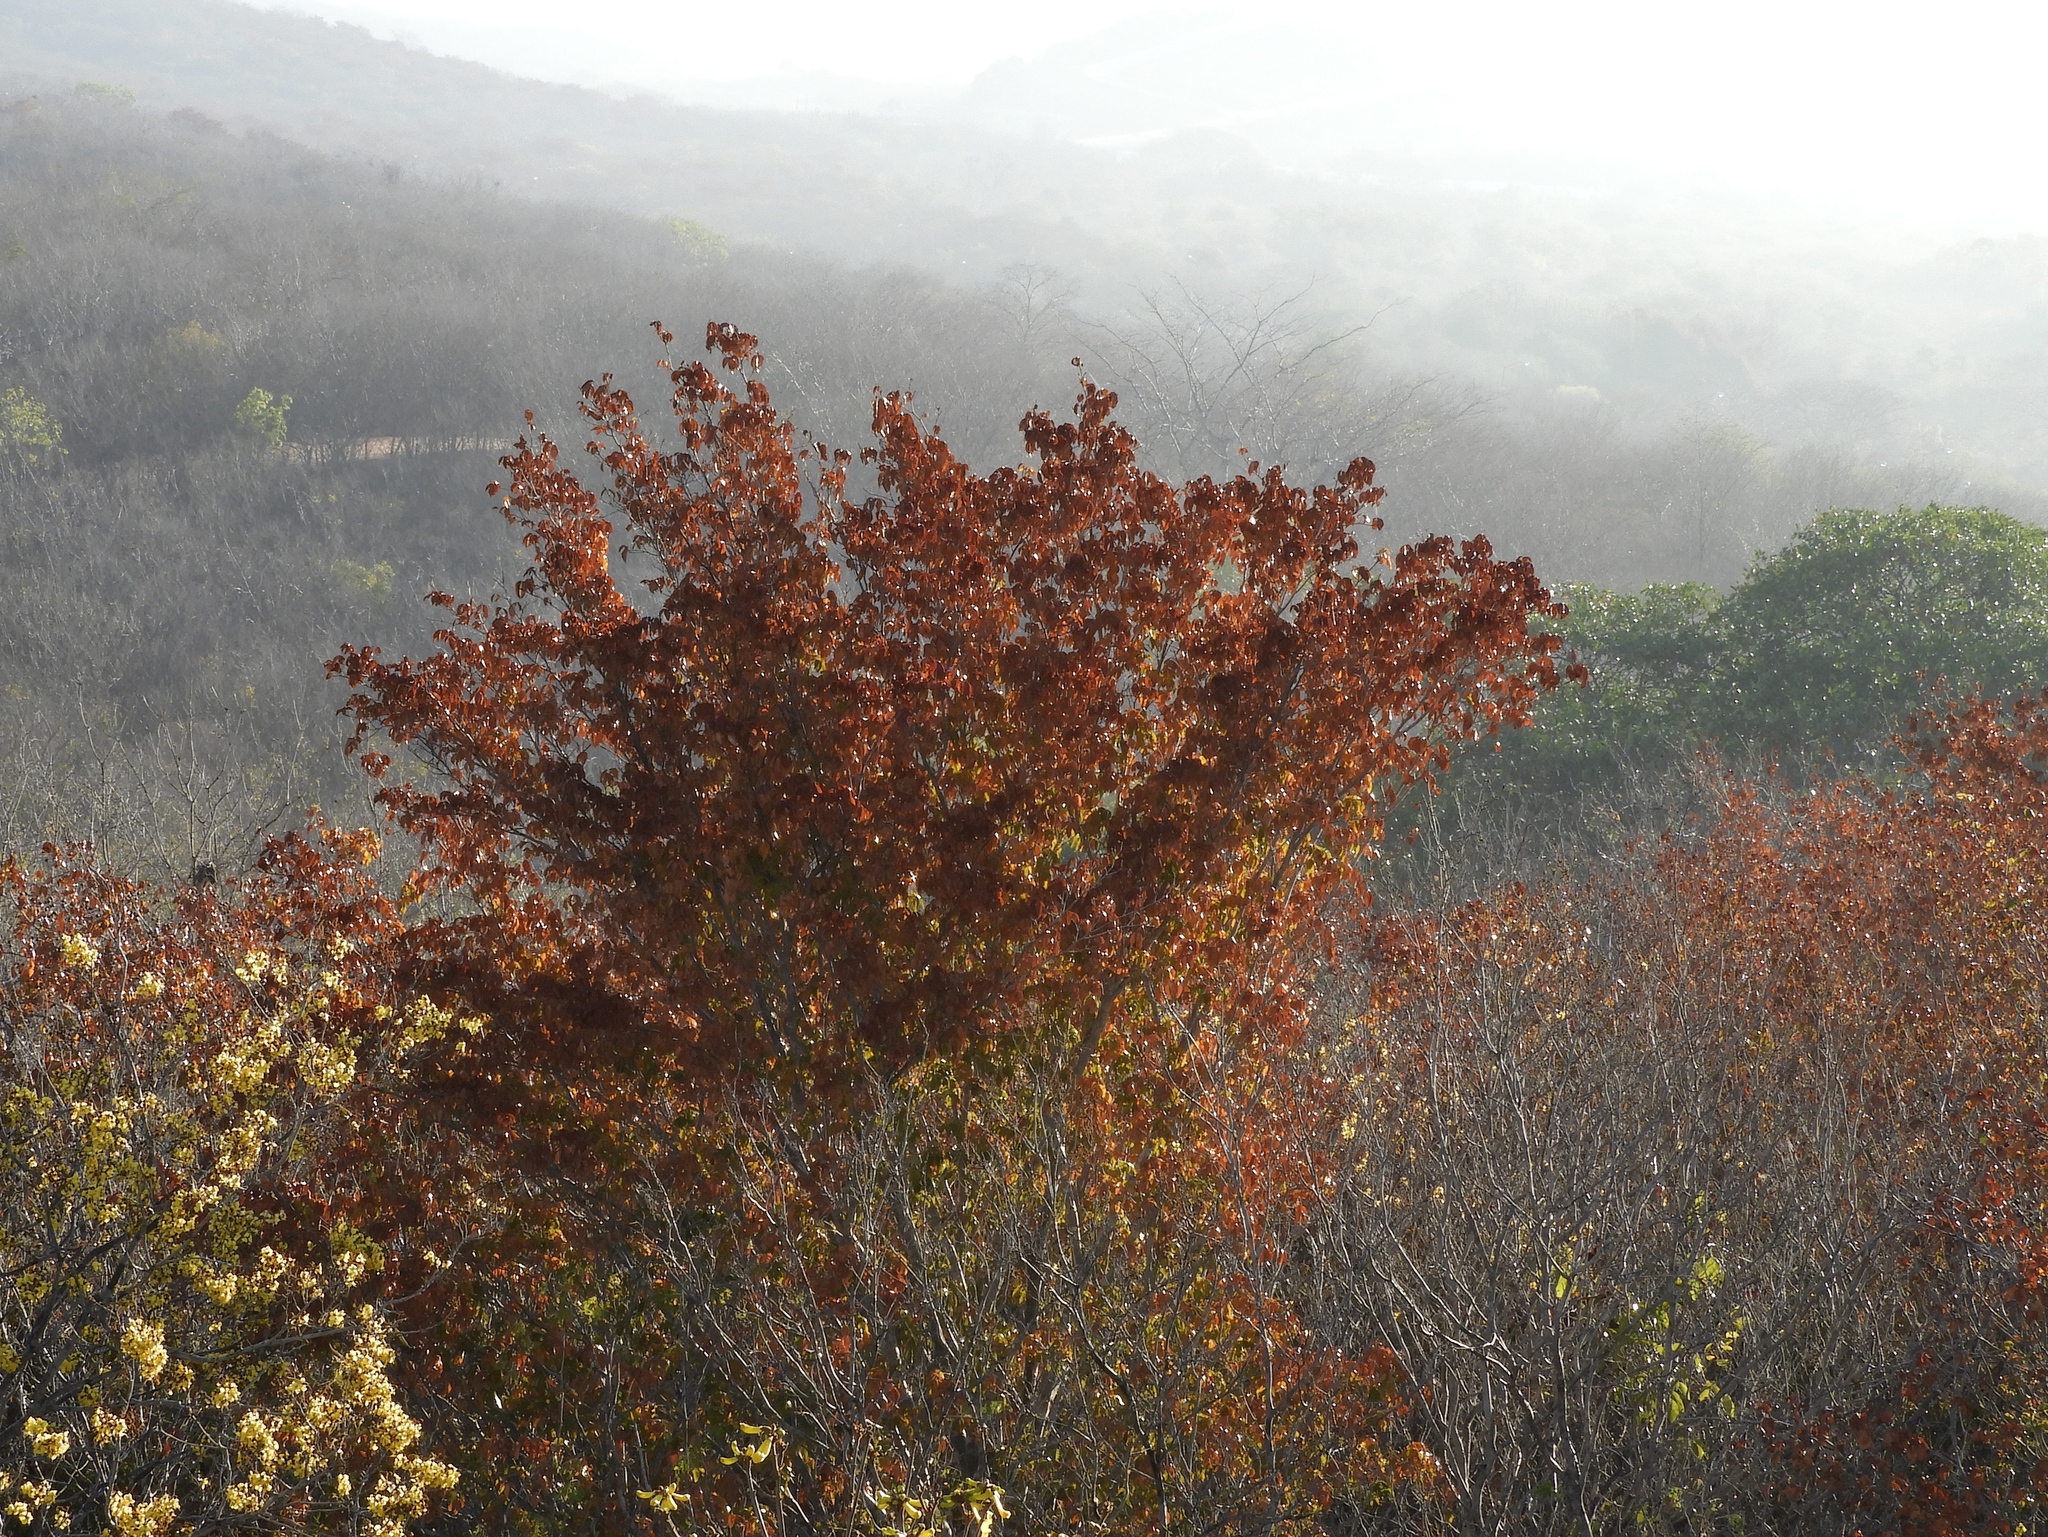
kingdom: Plantae
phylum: Tracheophyta
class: Magnoliopsida
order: Malpighiales
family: Picrodendraceae
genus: Piranhea
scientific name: Piranhea mexicana
